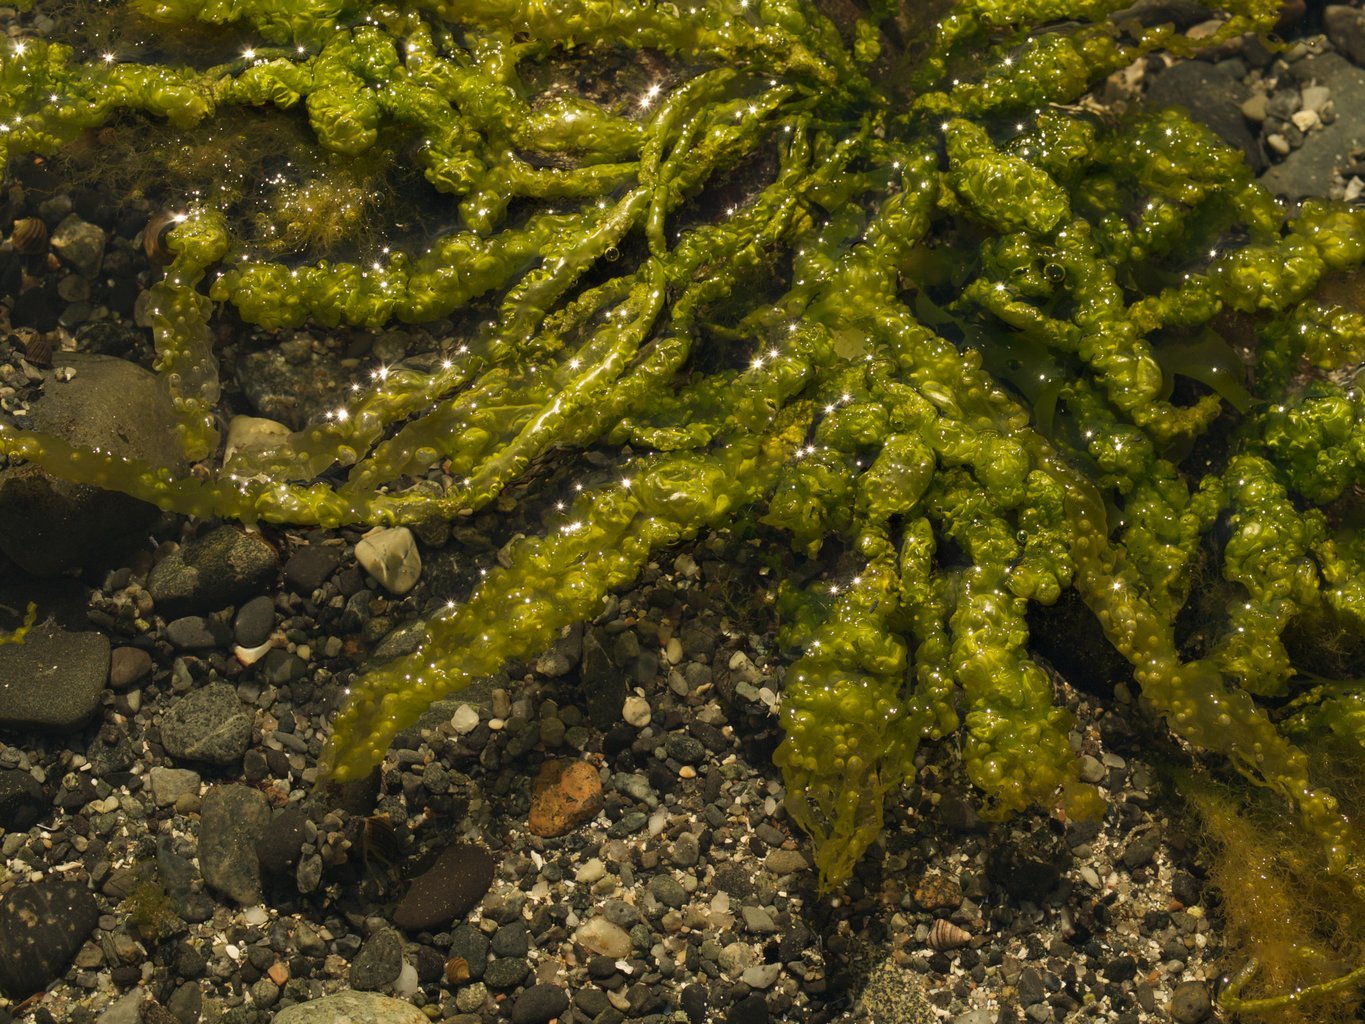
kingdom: Plantae
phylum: Chlorophyta
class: Ulvophyceae
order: Ulvales
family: Ulvaceae
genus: Ulva
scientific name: Ulva intestinalis
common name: Gut weed
